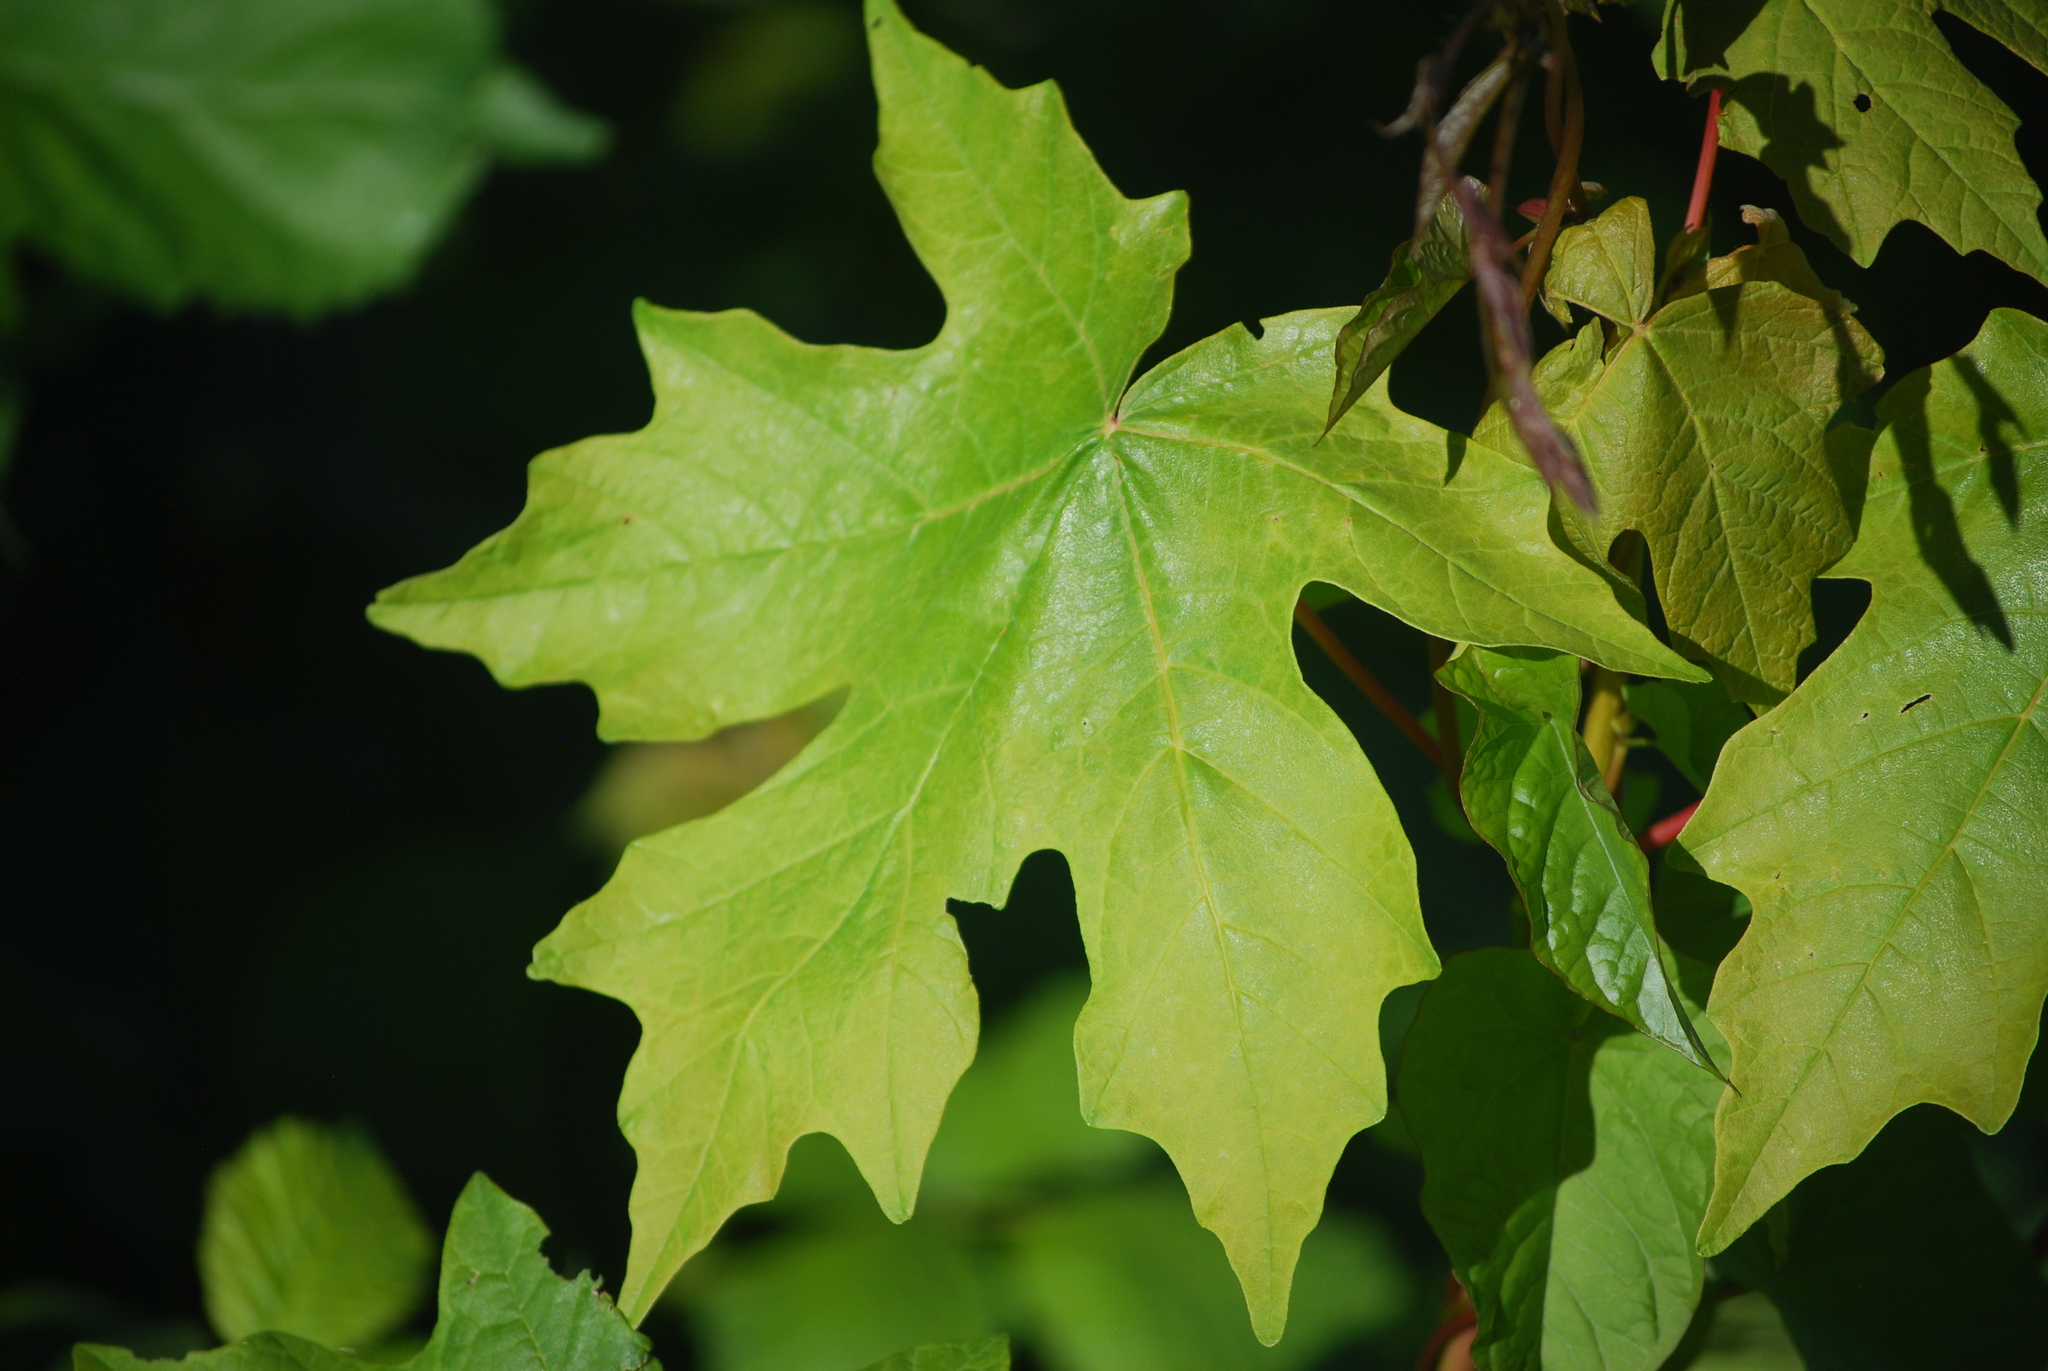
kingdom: Plantae
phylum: Tracheophyta
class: Magnoliopsida
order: Sapindales
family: Sapindaceae
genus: Acer
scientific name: Acer macrophyllum
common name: Oregon maple
